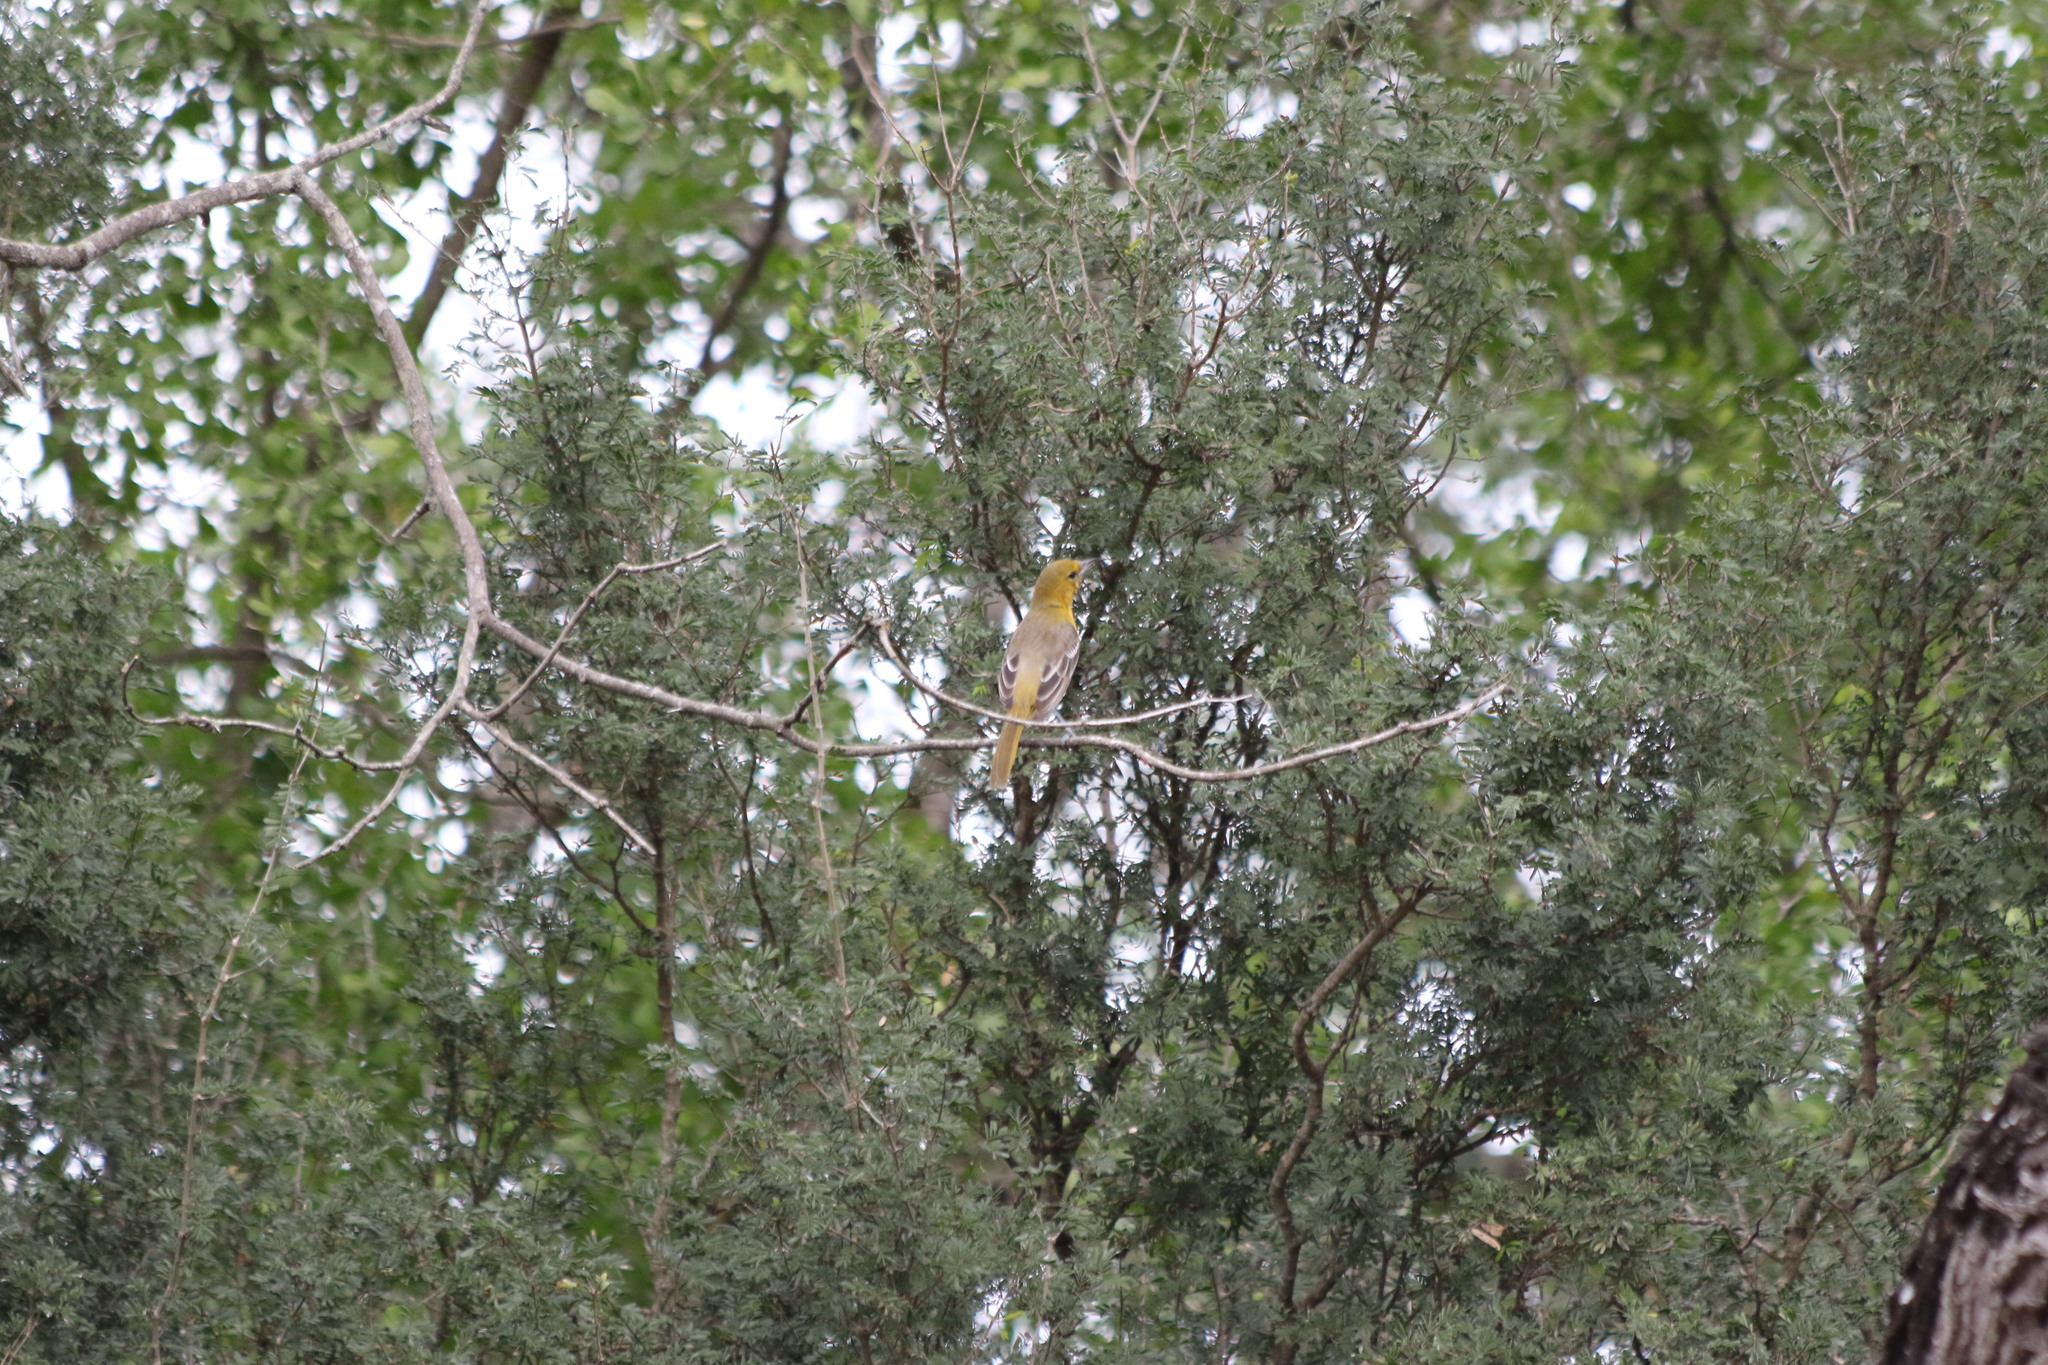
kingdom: Animalia
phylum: Chordata
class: Aves
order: Passeriformes
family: Icteridae
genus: Icterus
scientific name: Icterus cucullatus
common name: Hooded oriole
